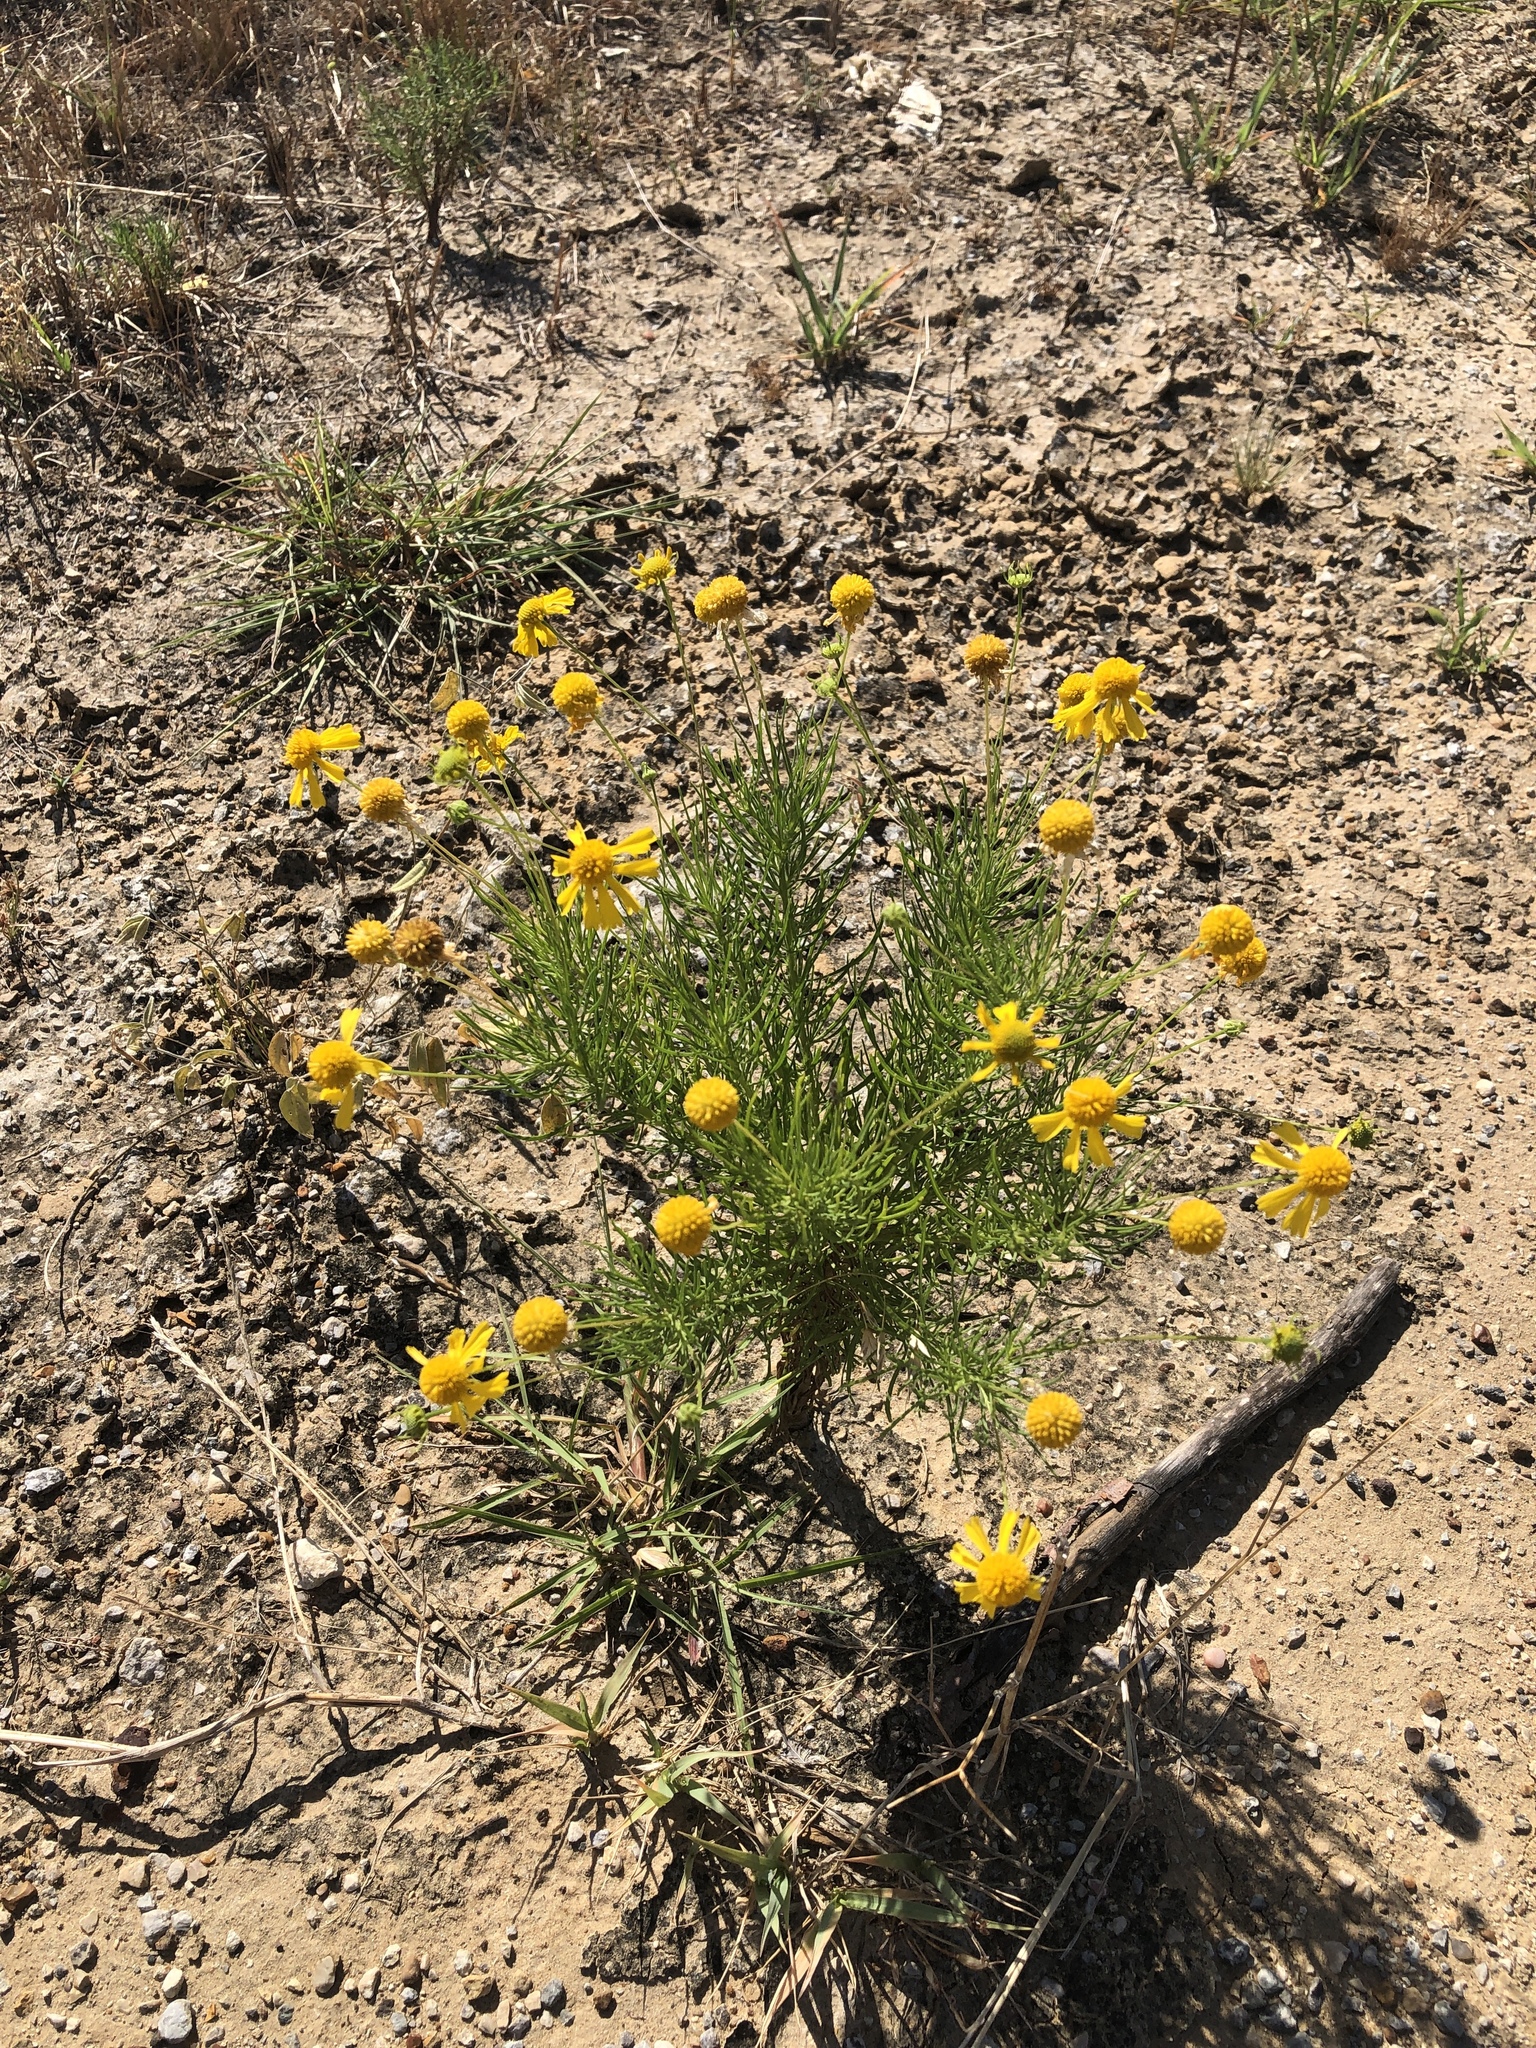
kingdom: Plantae
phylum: Tracheophyta
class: Magnoliopsida
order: Asterales
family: Asteraceae
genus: Helenium
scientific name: Helenium amarum
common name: Bitter sneezeweed
